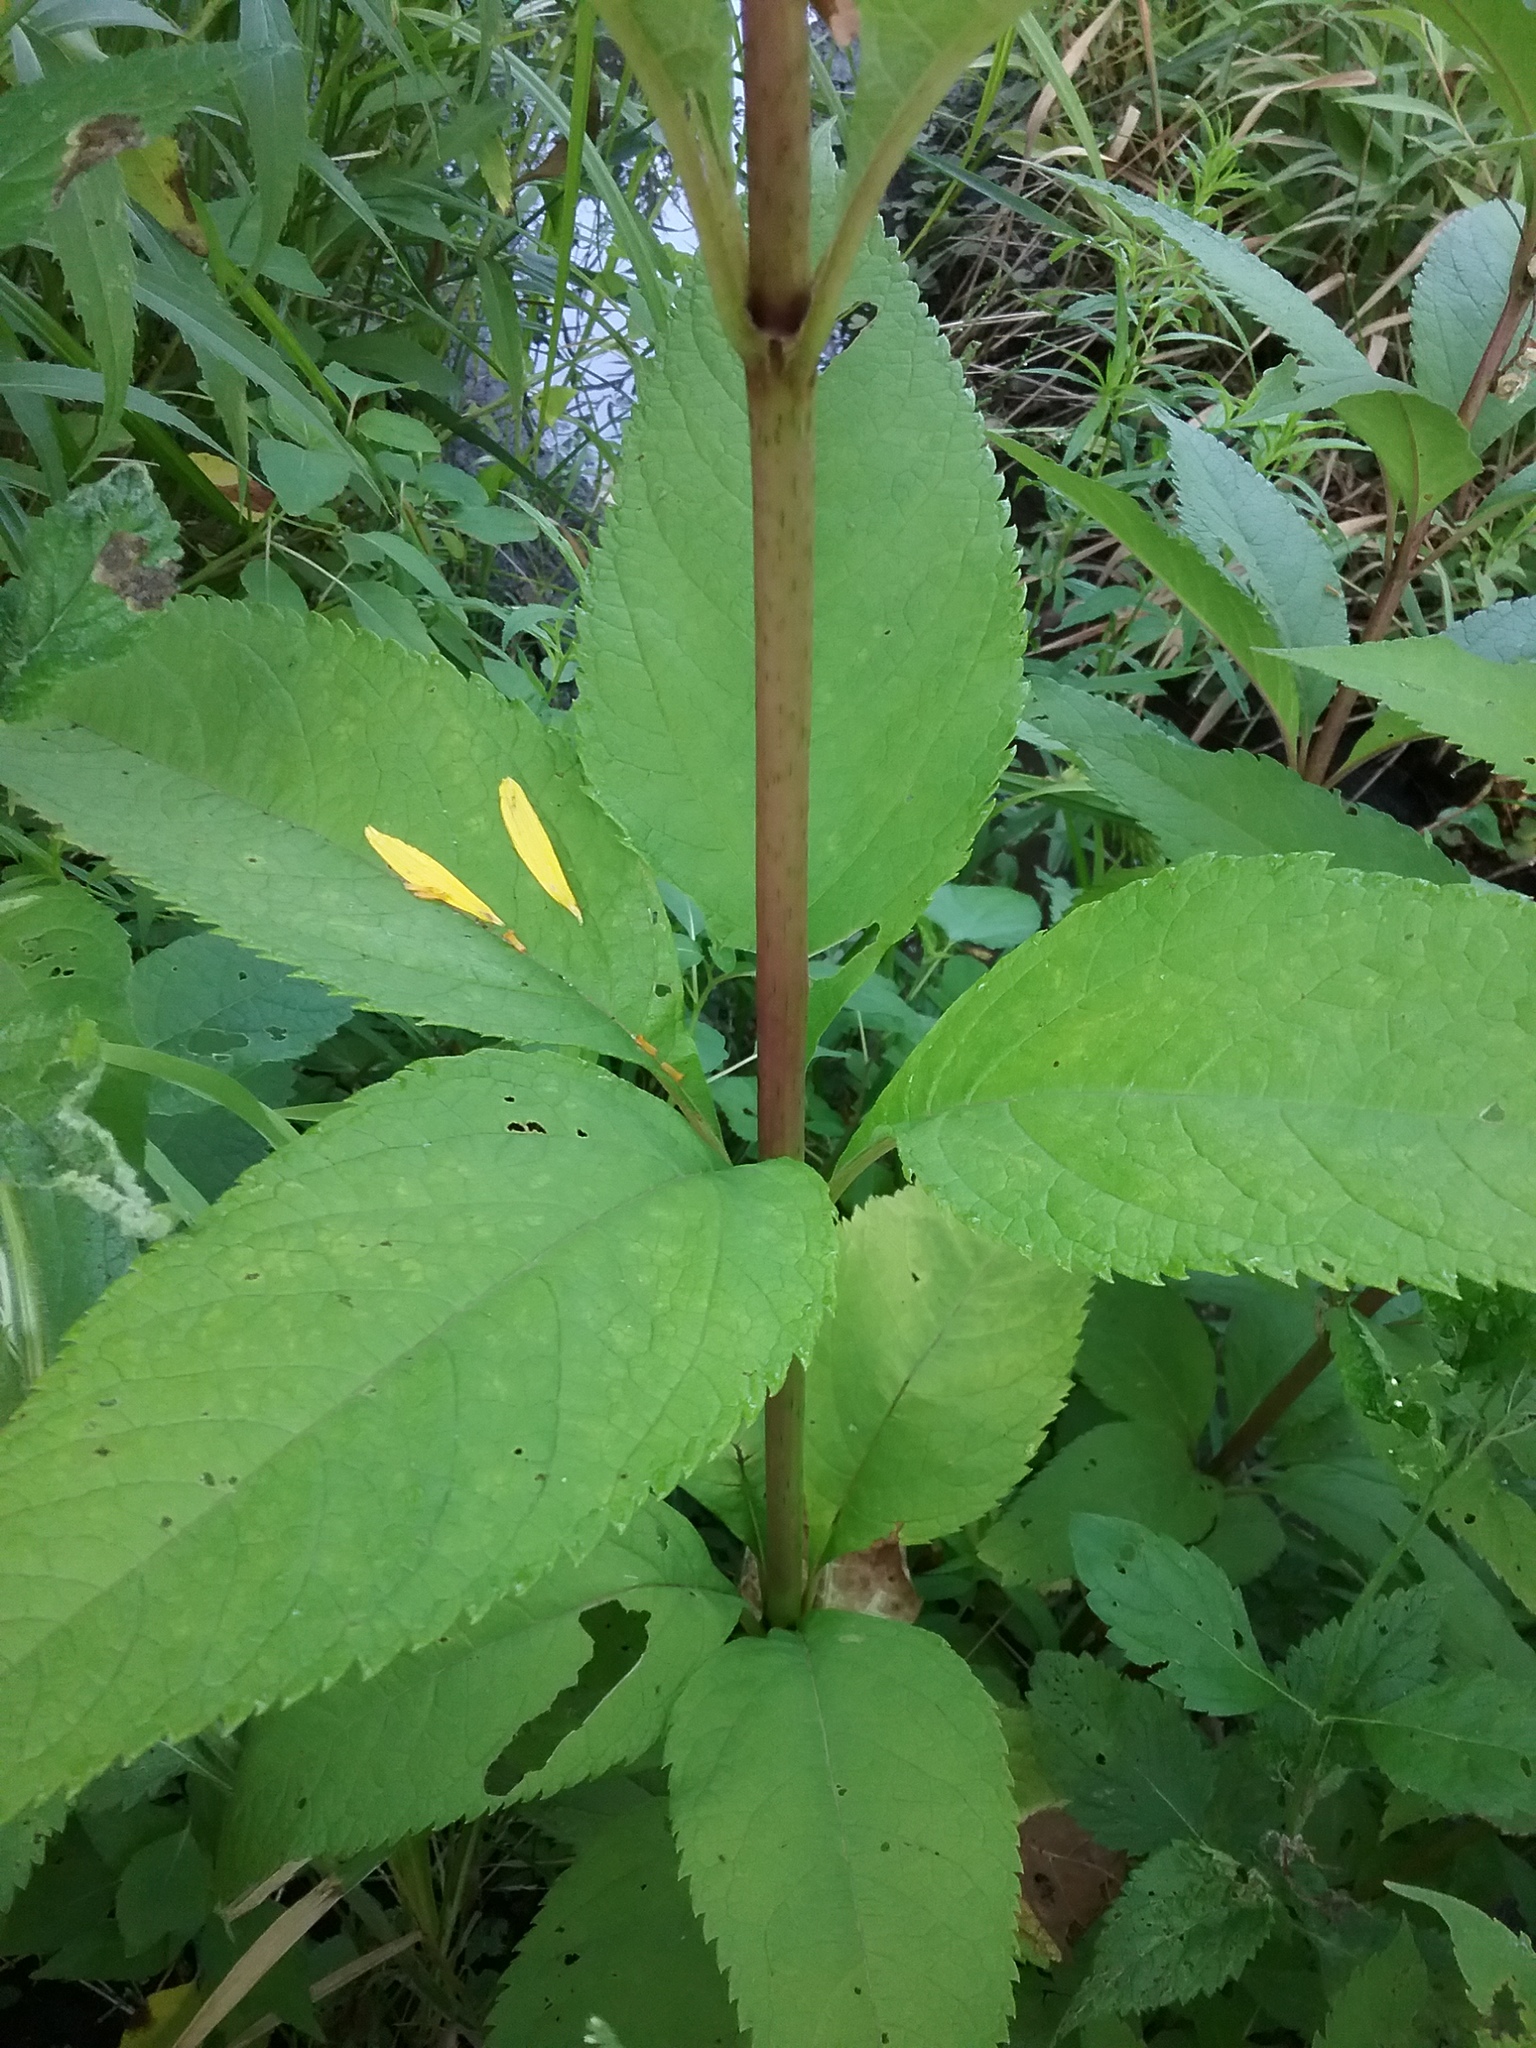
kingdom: Plantae
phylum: Tracheophyta
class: Magnoliopsida
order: Asterales
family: Asteraceae
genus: Eutrochium
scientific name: Eutrochium maculatum
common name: Spotted joe pye weed
